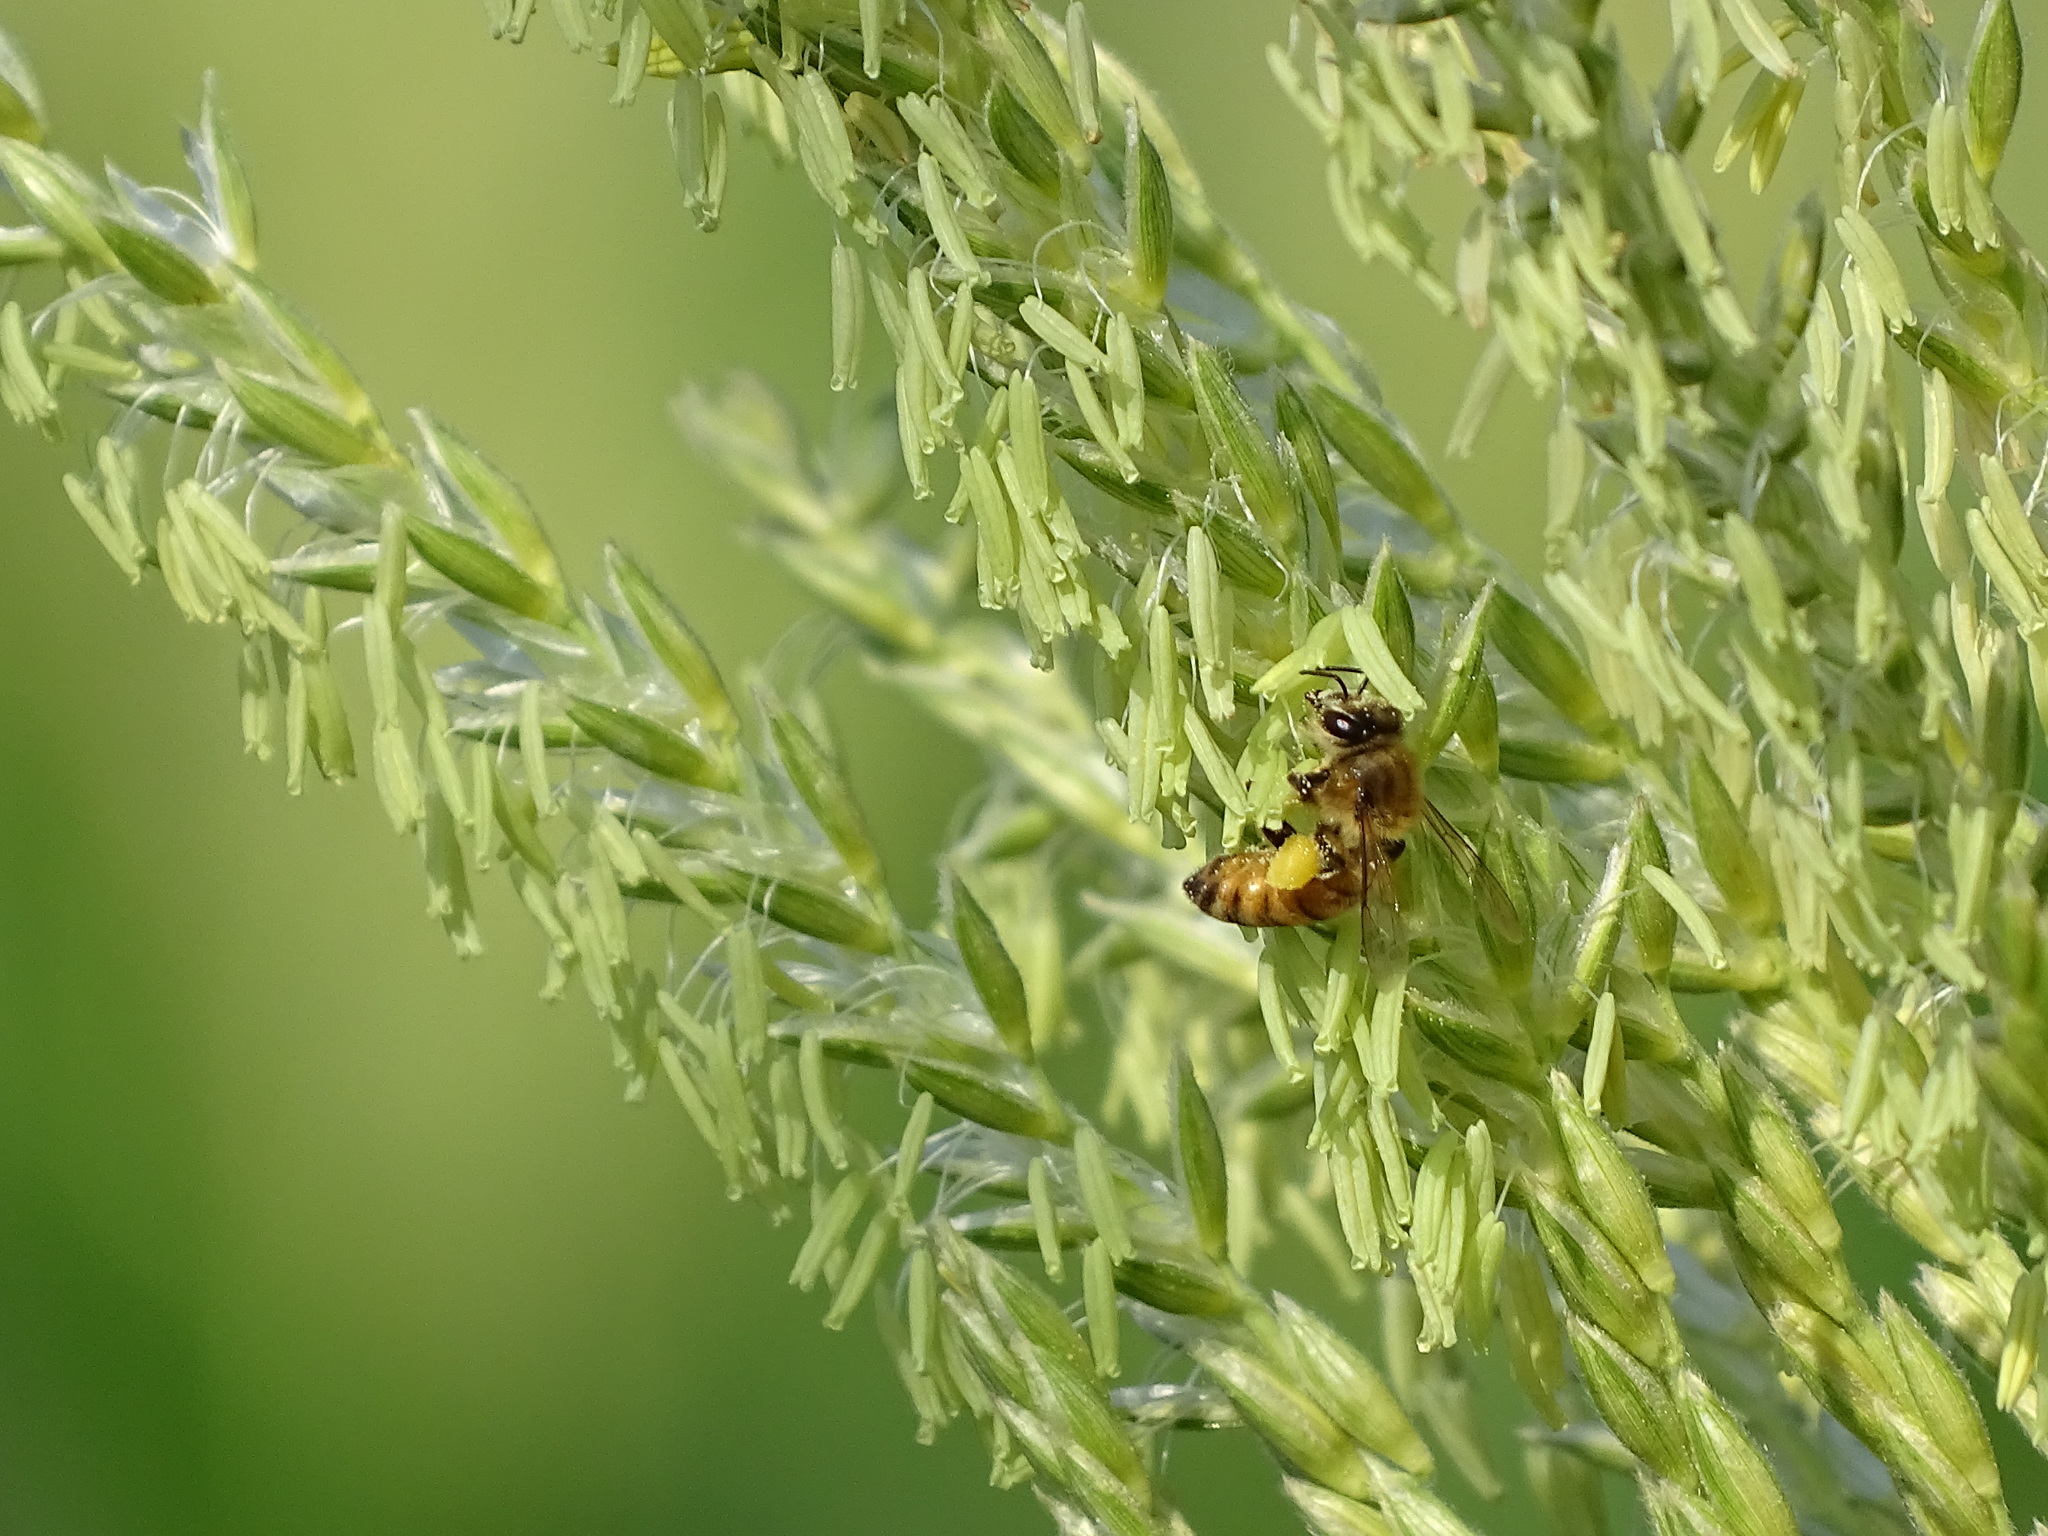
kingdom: Animalia
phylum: Arthropoda
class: Insecta
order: Hymenoptera
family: Apidae
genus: Apis
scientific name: Apis mellifera
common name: Honey bee
